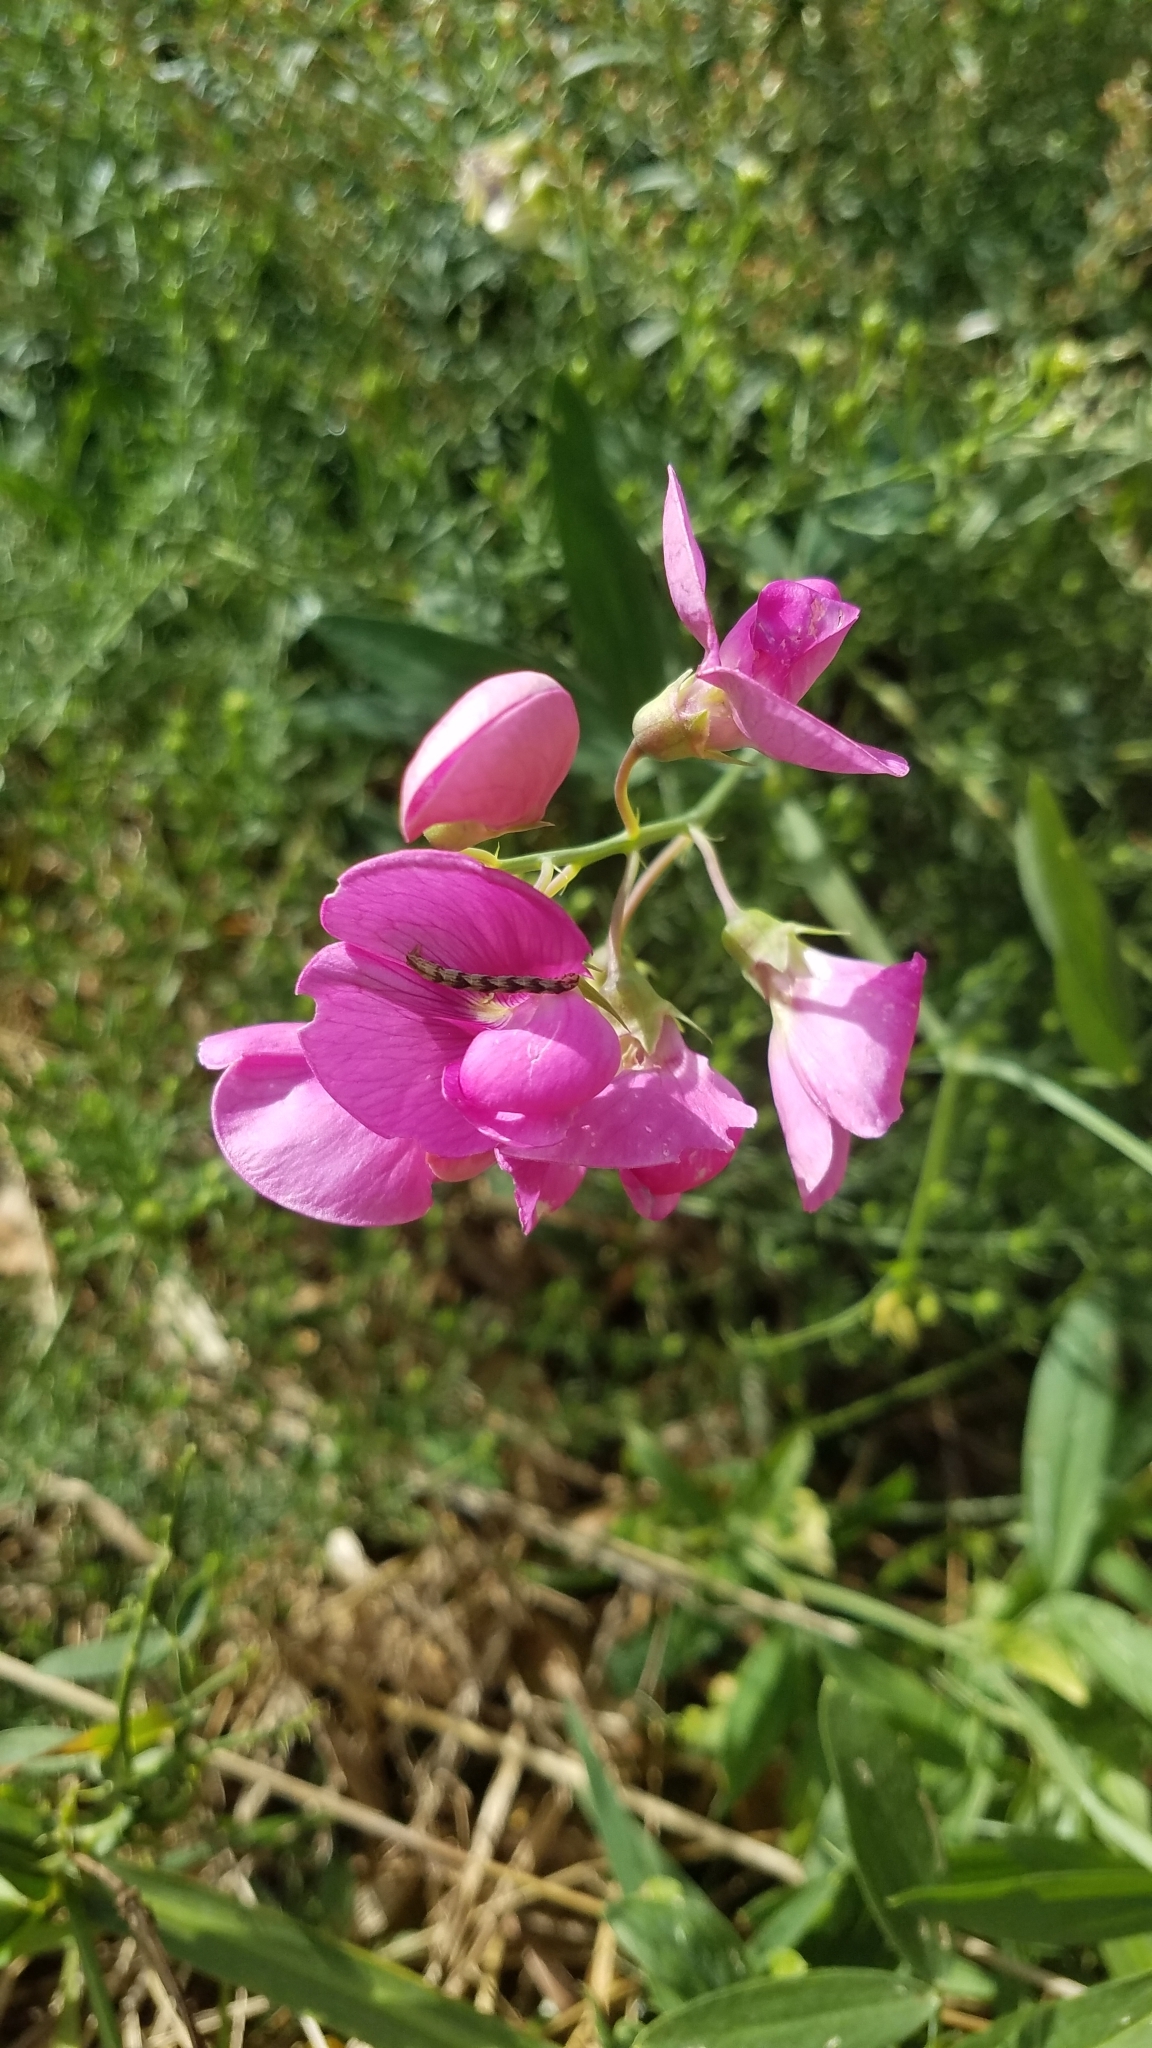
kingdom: Plantae
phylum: Tracheophyta
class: Magnoliopsida
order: Fabales
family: Fabaceae
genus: Lathyrus
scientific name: Lathyrus latifolius
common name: Perennial pea
